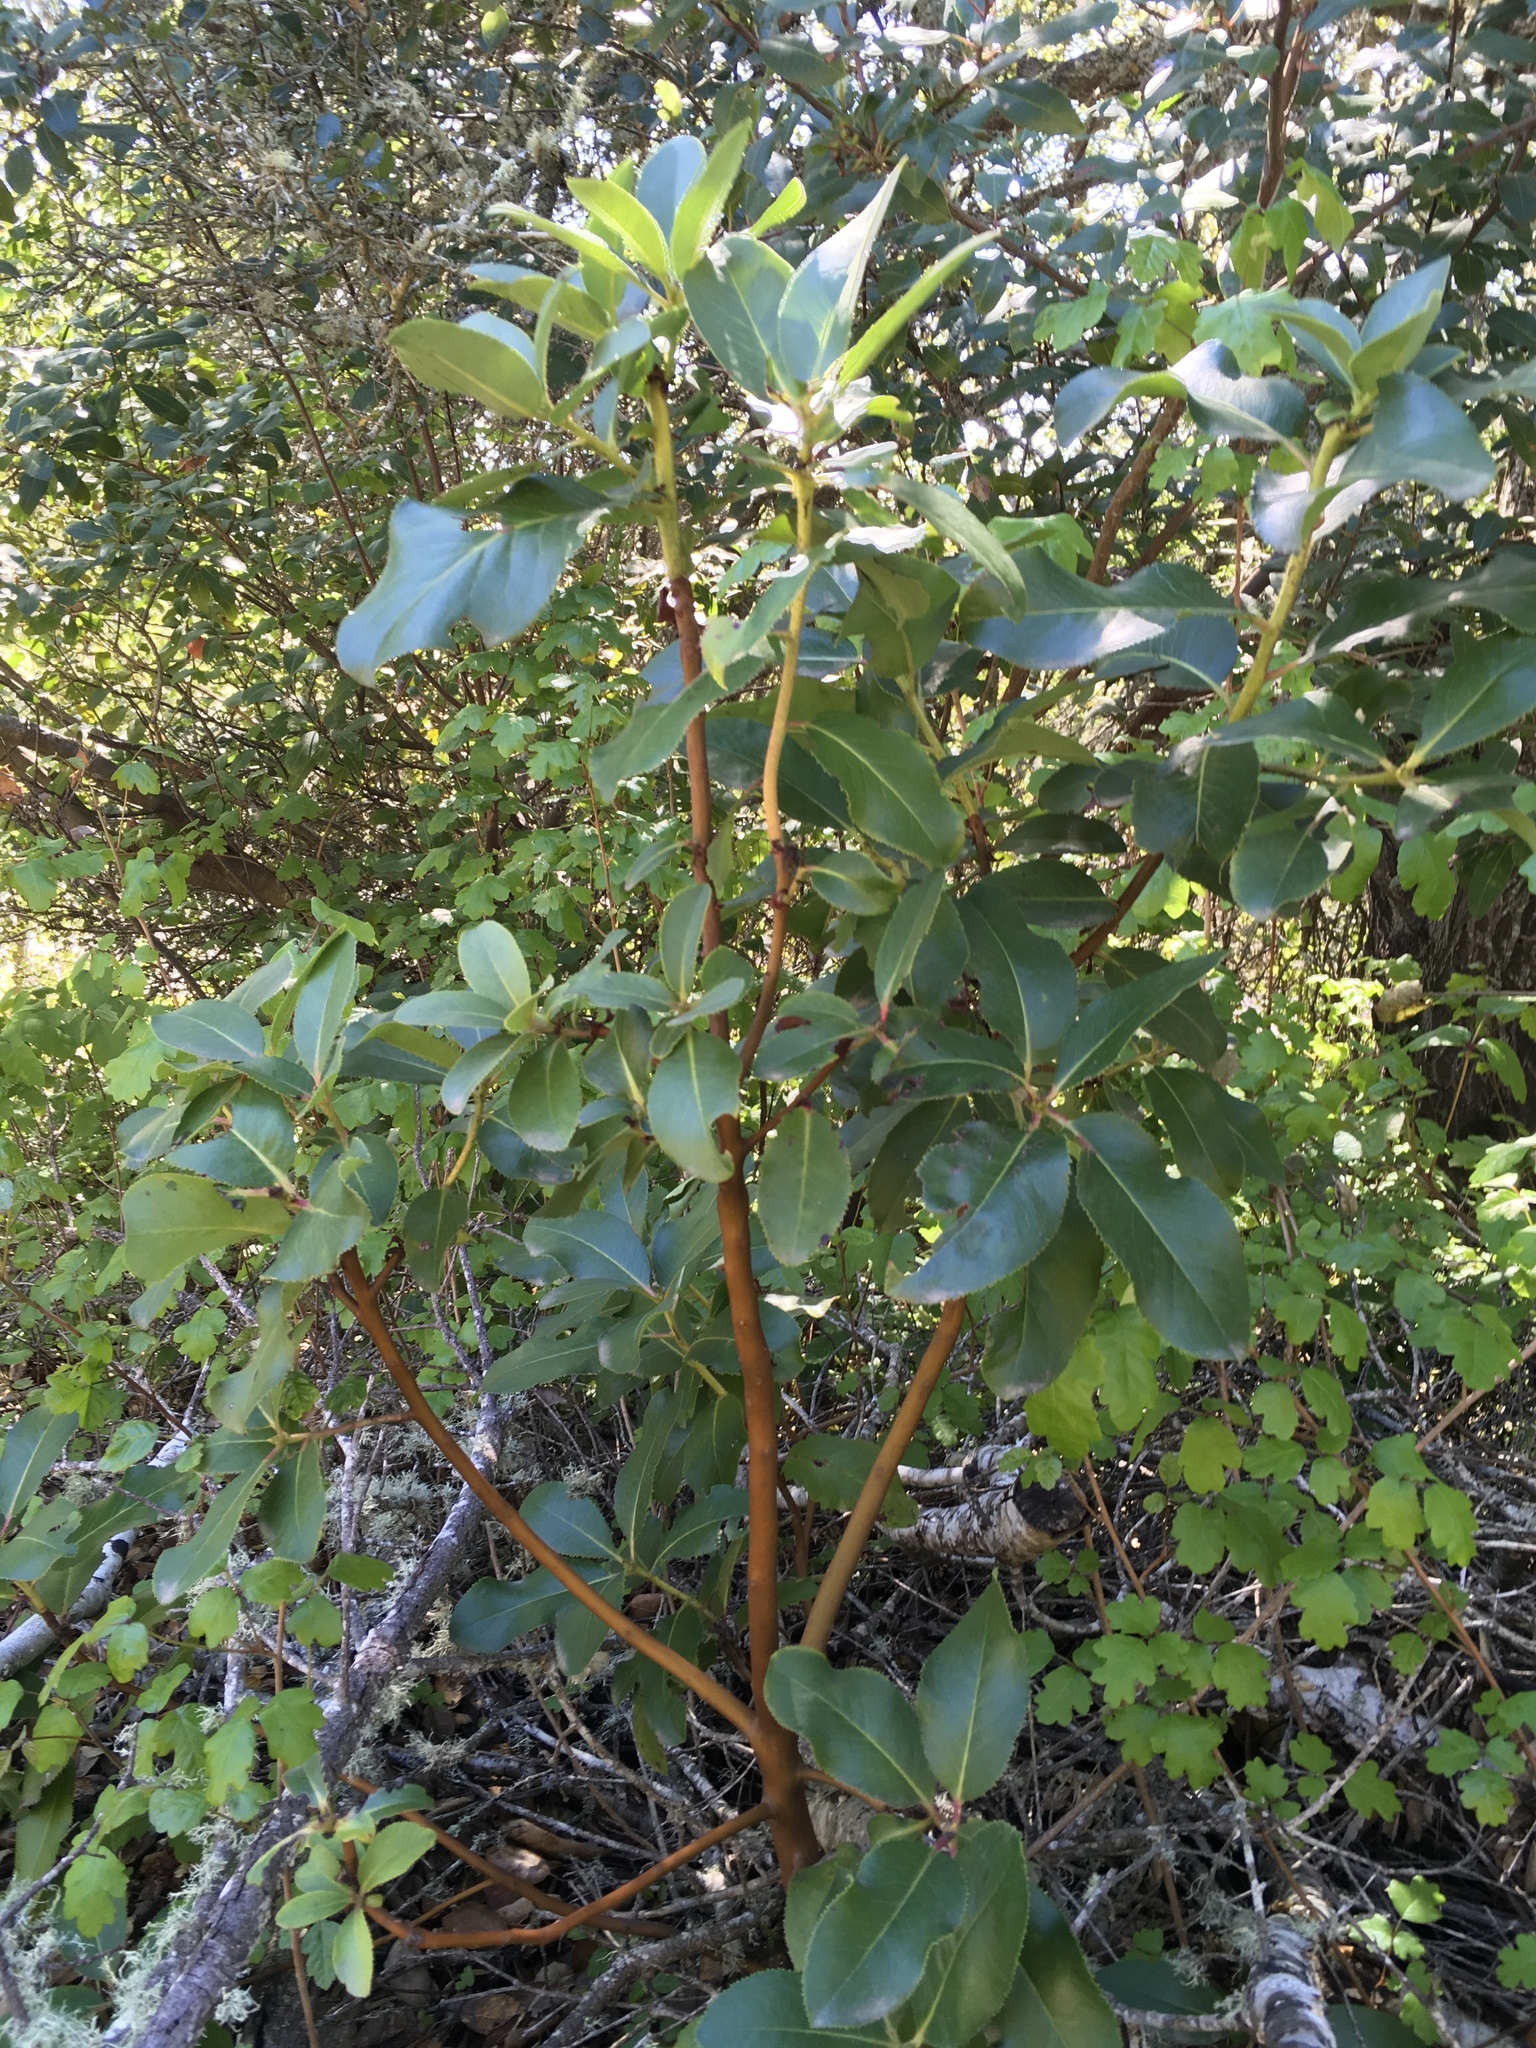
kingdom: Plantae
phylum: Tracheophyta
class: Magnoliopsida
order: Ericales
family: Ericaceae
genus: Arbutus
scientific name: Arbutus menziesii
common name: Pacific madrone
